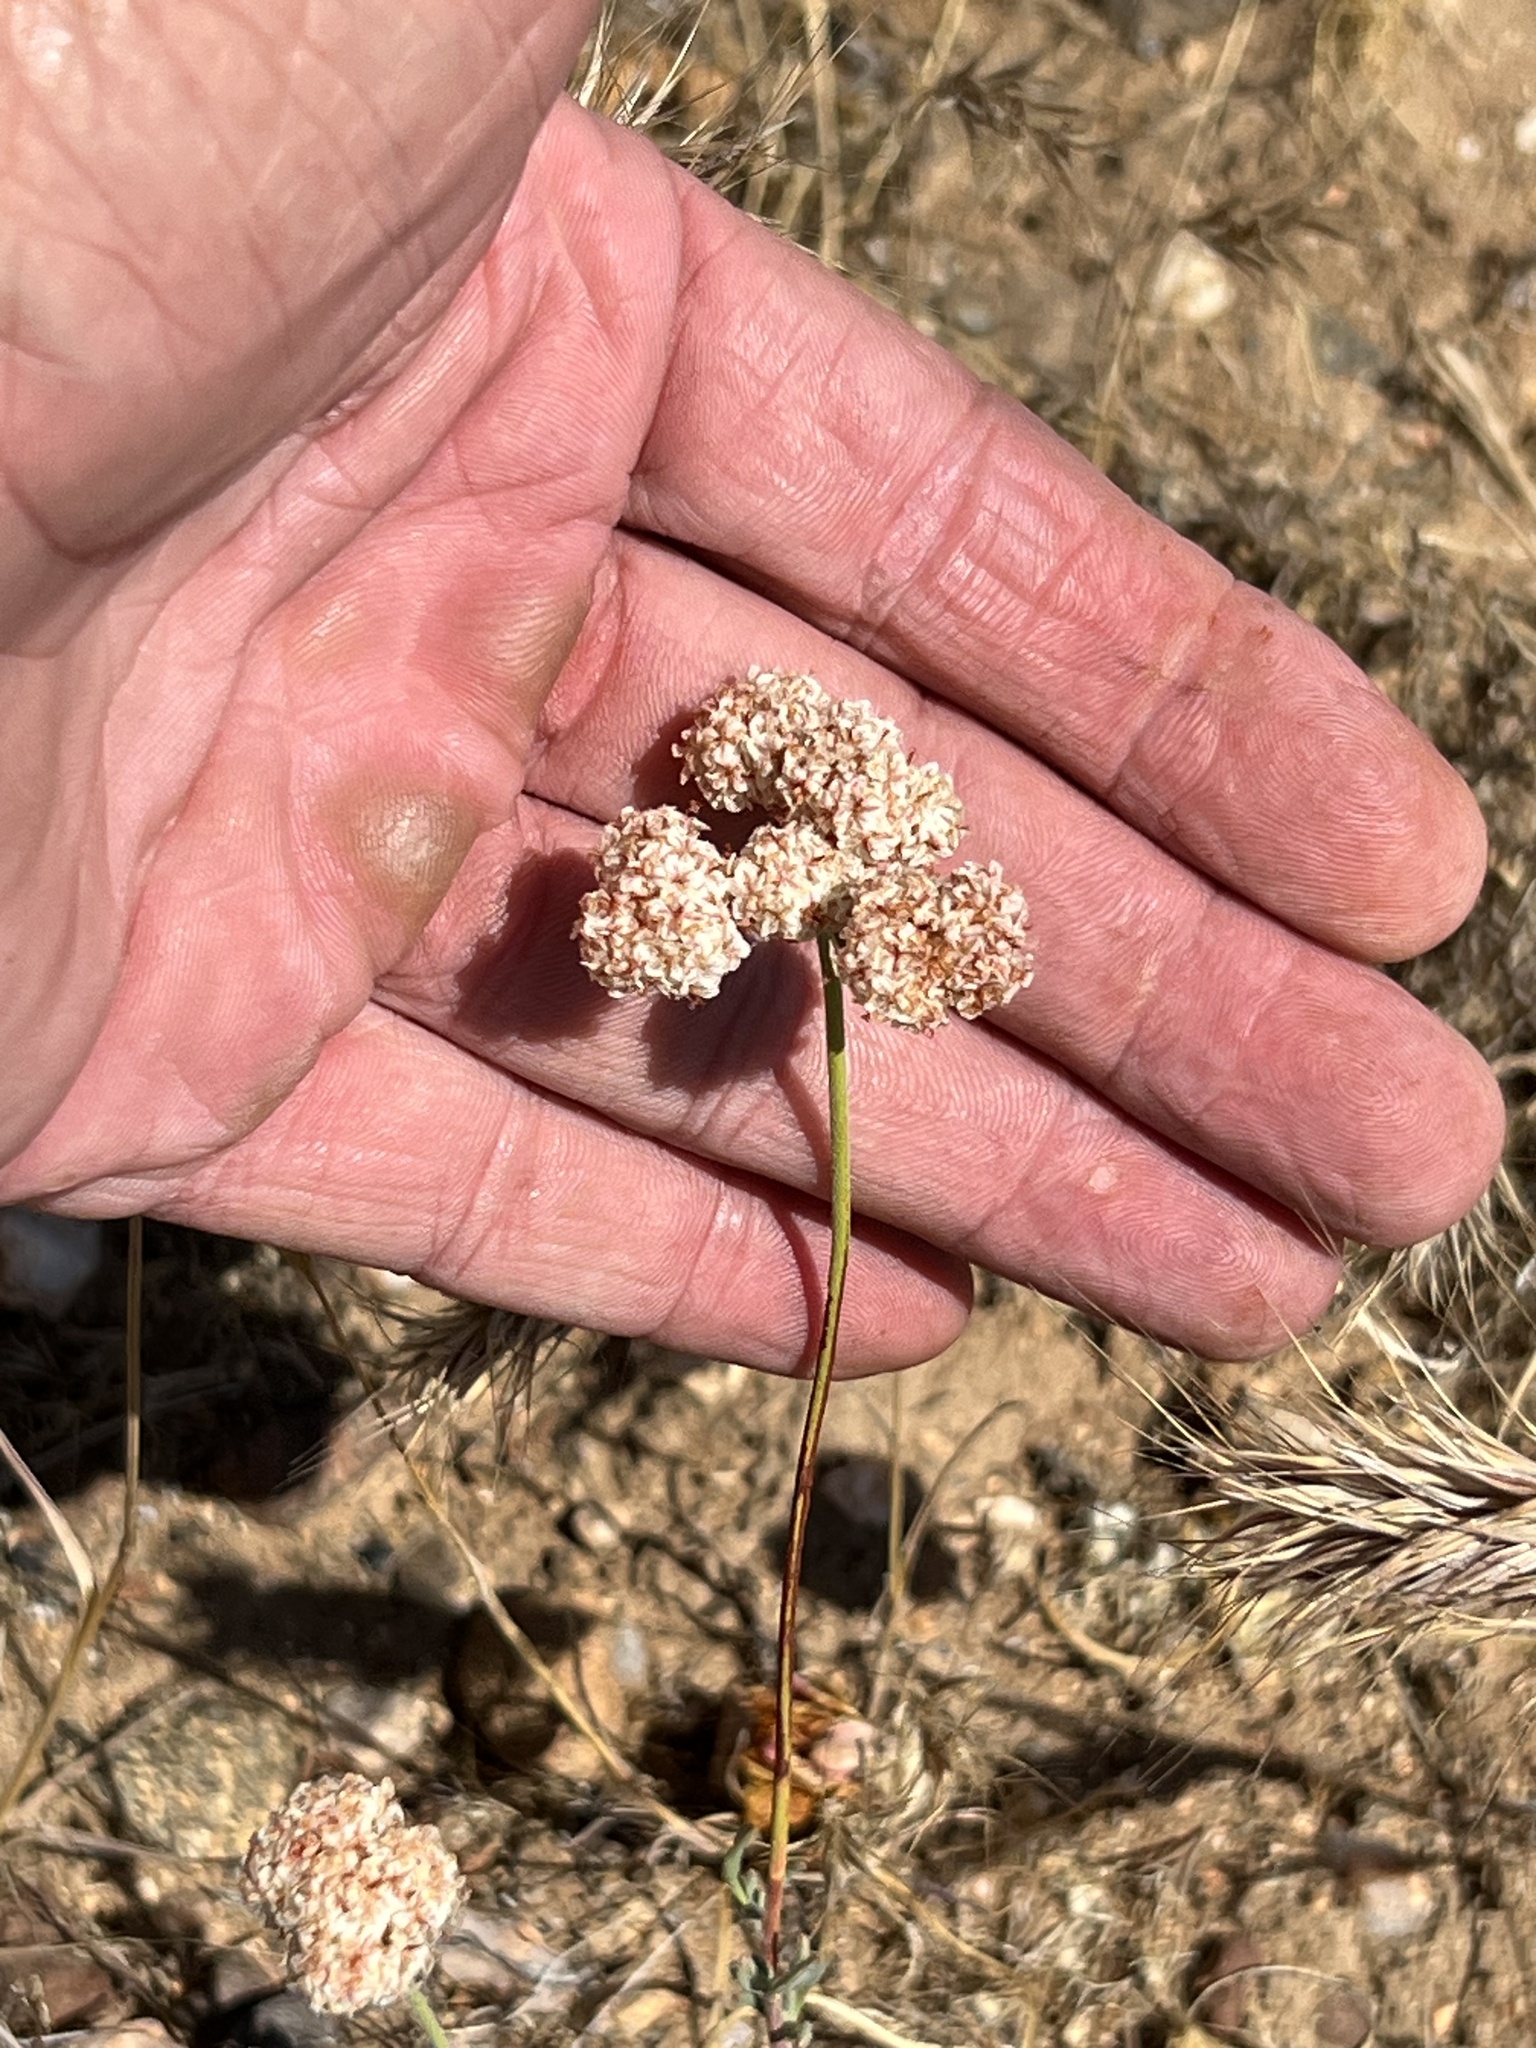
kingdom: Plantae
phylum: Tracheophyta
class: Magnoliopsida
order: Caryophyllales
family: Polygonaceae
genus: Eriogonum
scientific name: Eriogonum fasciculatum
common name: California wild buckwheat
